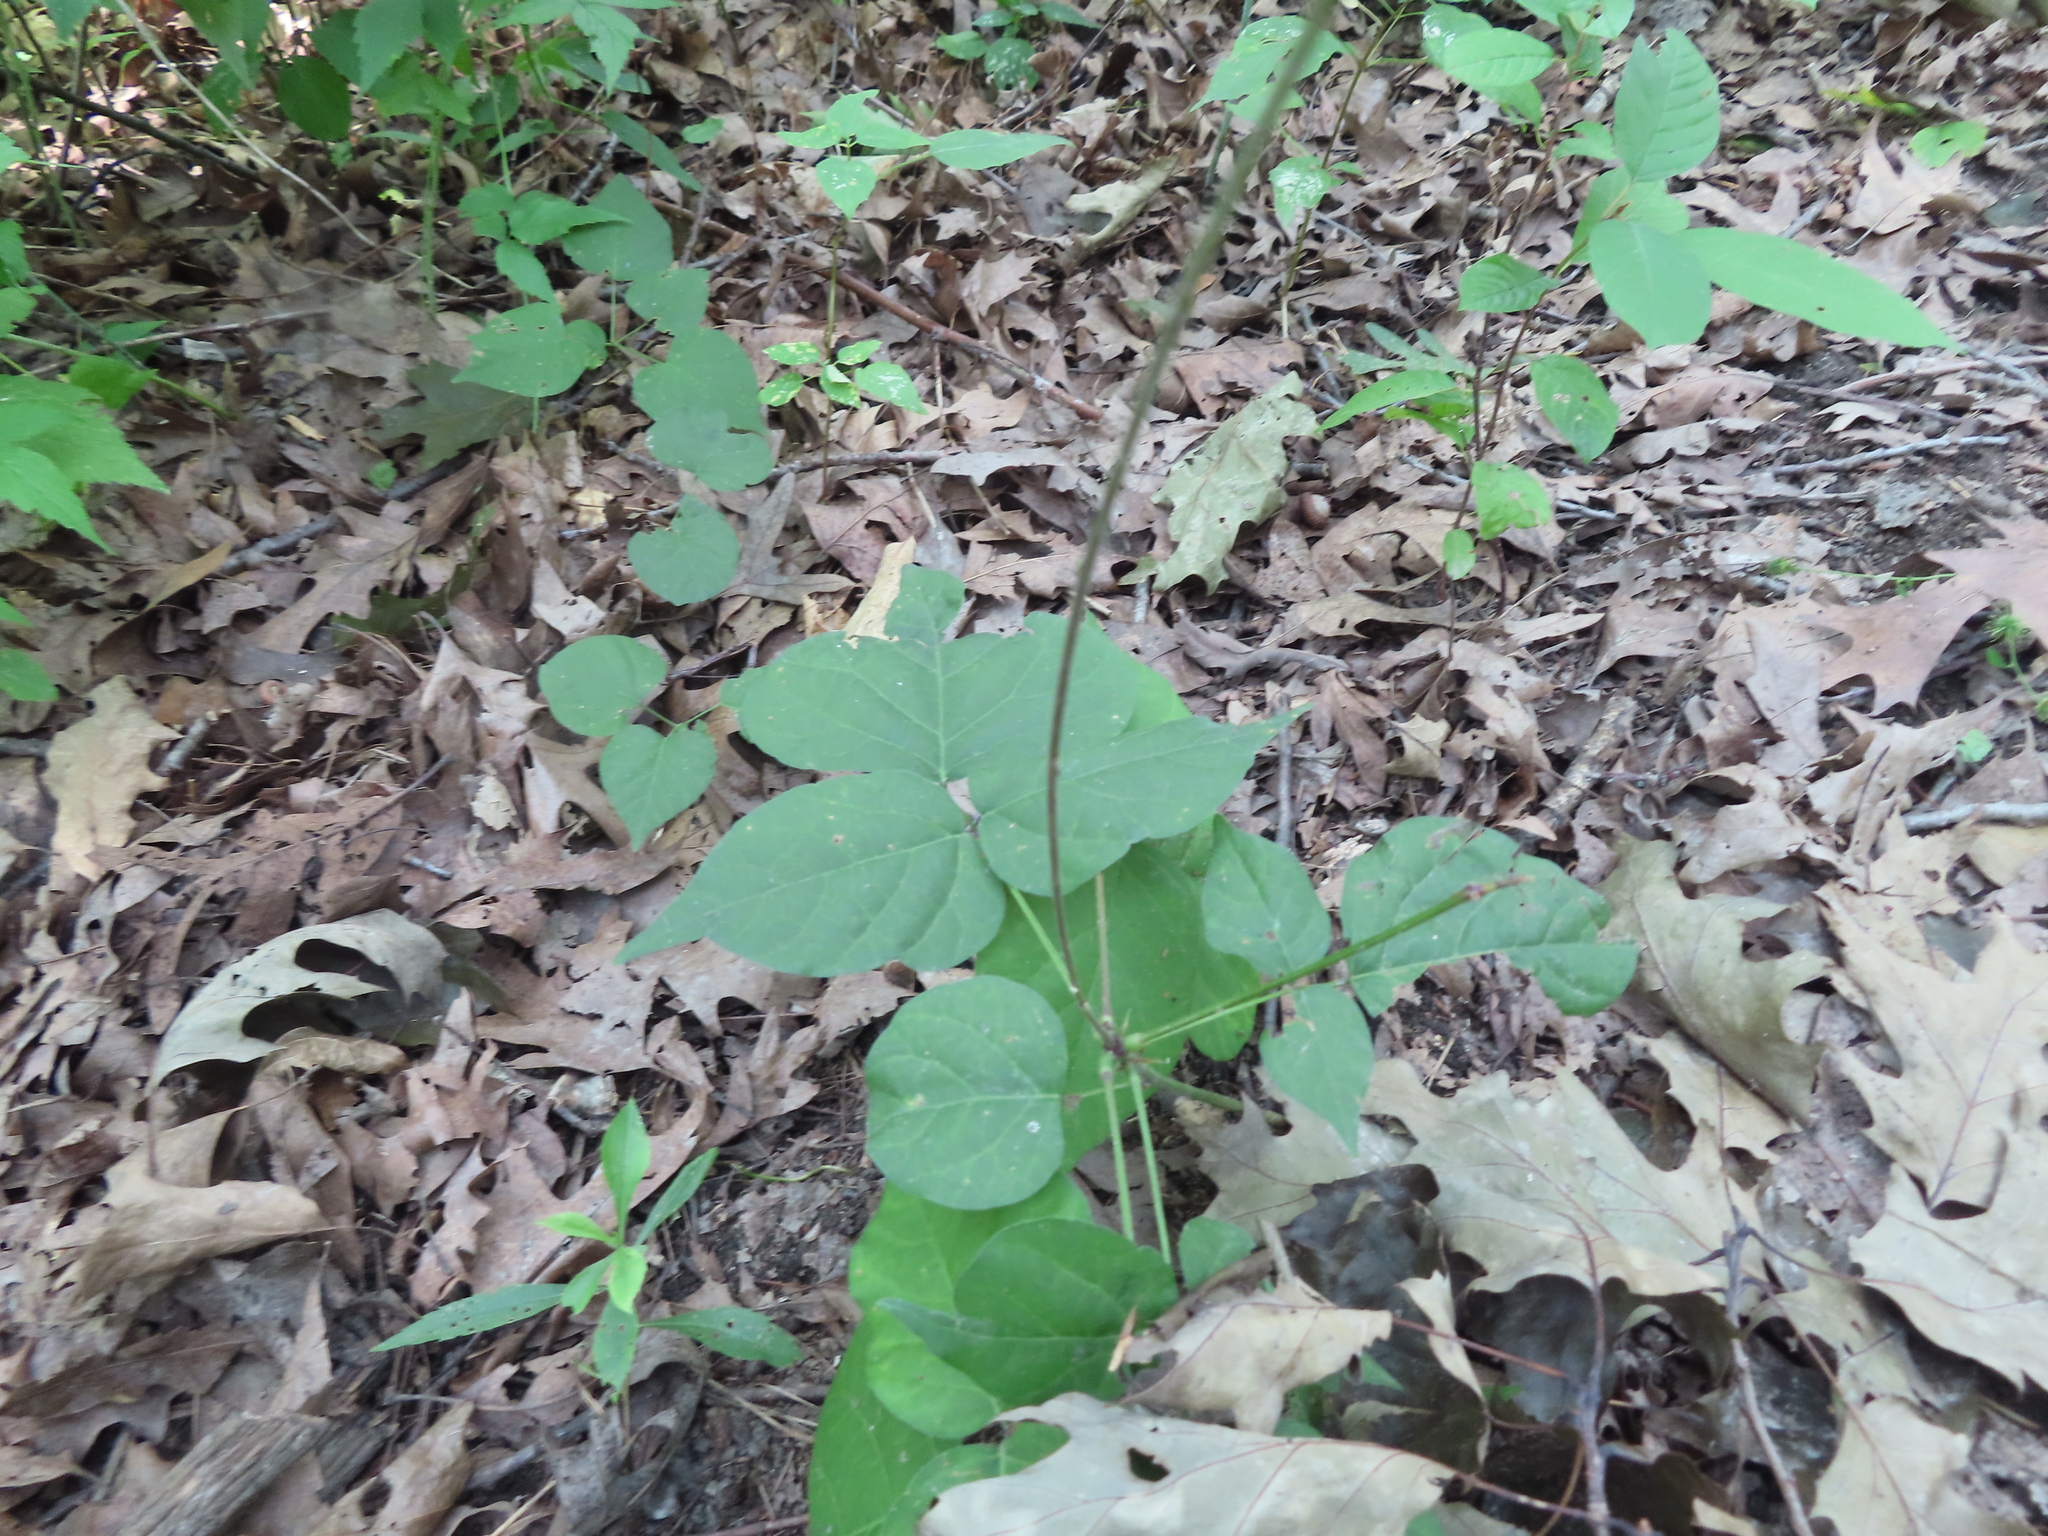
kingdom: Plantae
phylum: Tracheophyta
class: Magnoliopsida
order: Fabales
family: Fabaceae
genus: Hylodesmum
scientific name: Hylodesmum glutinosum
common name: Clustered-leaved tick-trefoil
